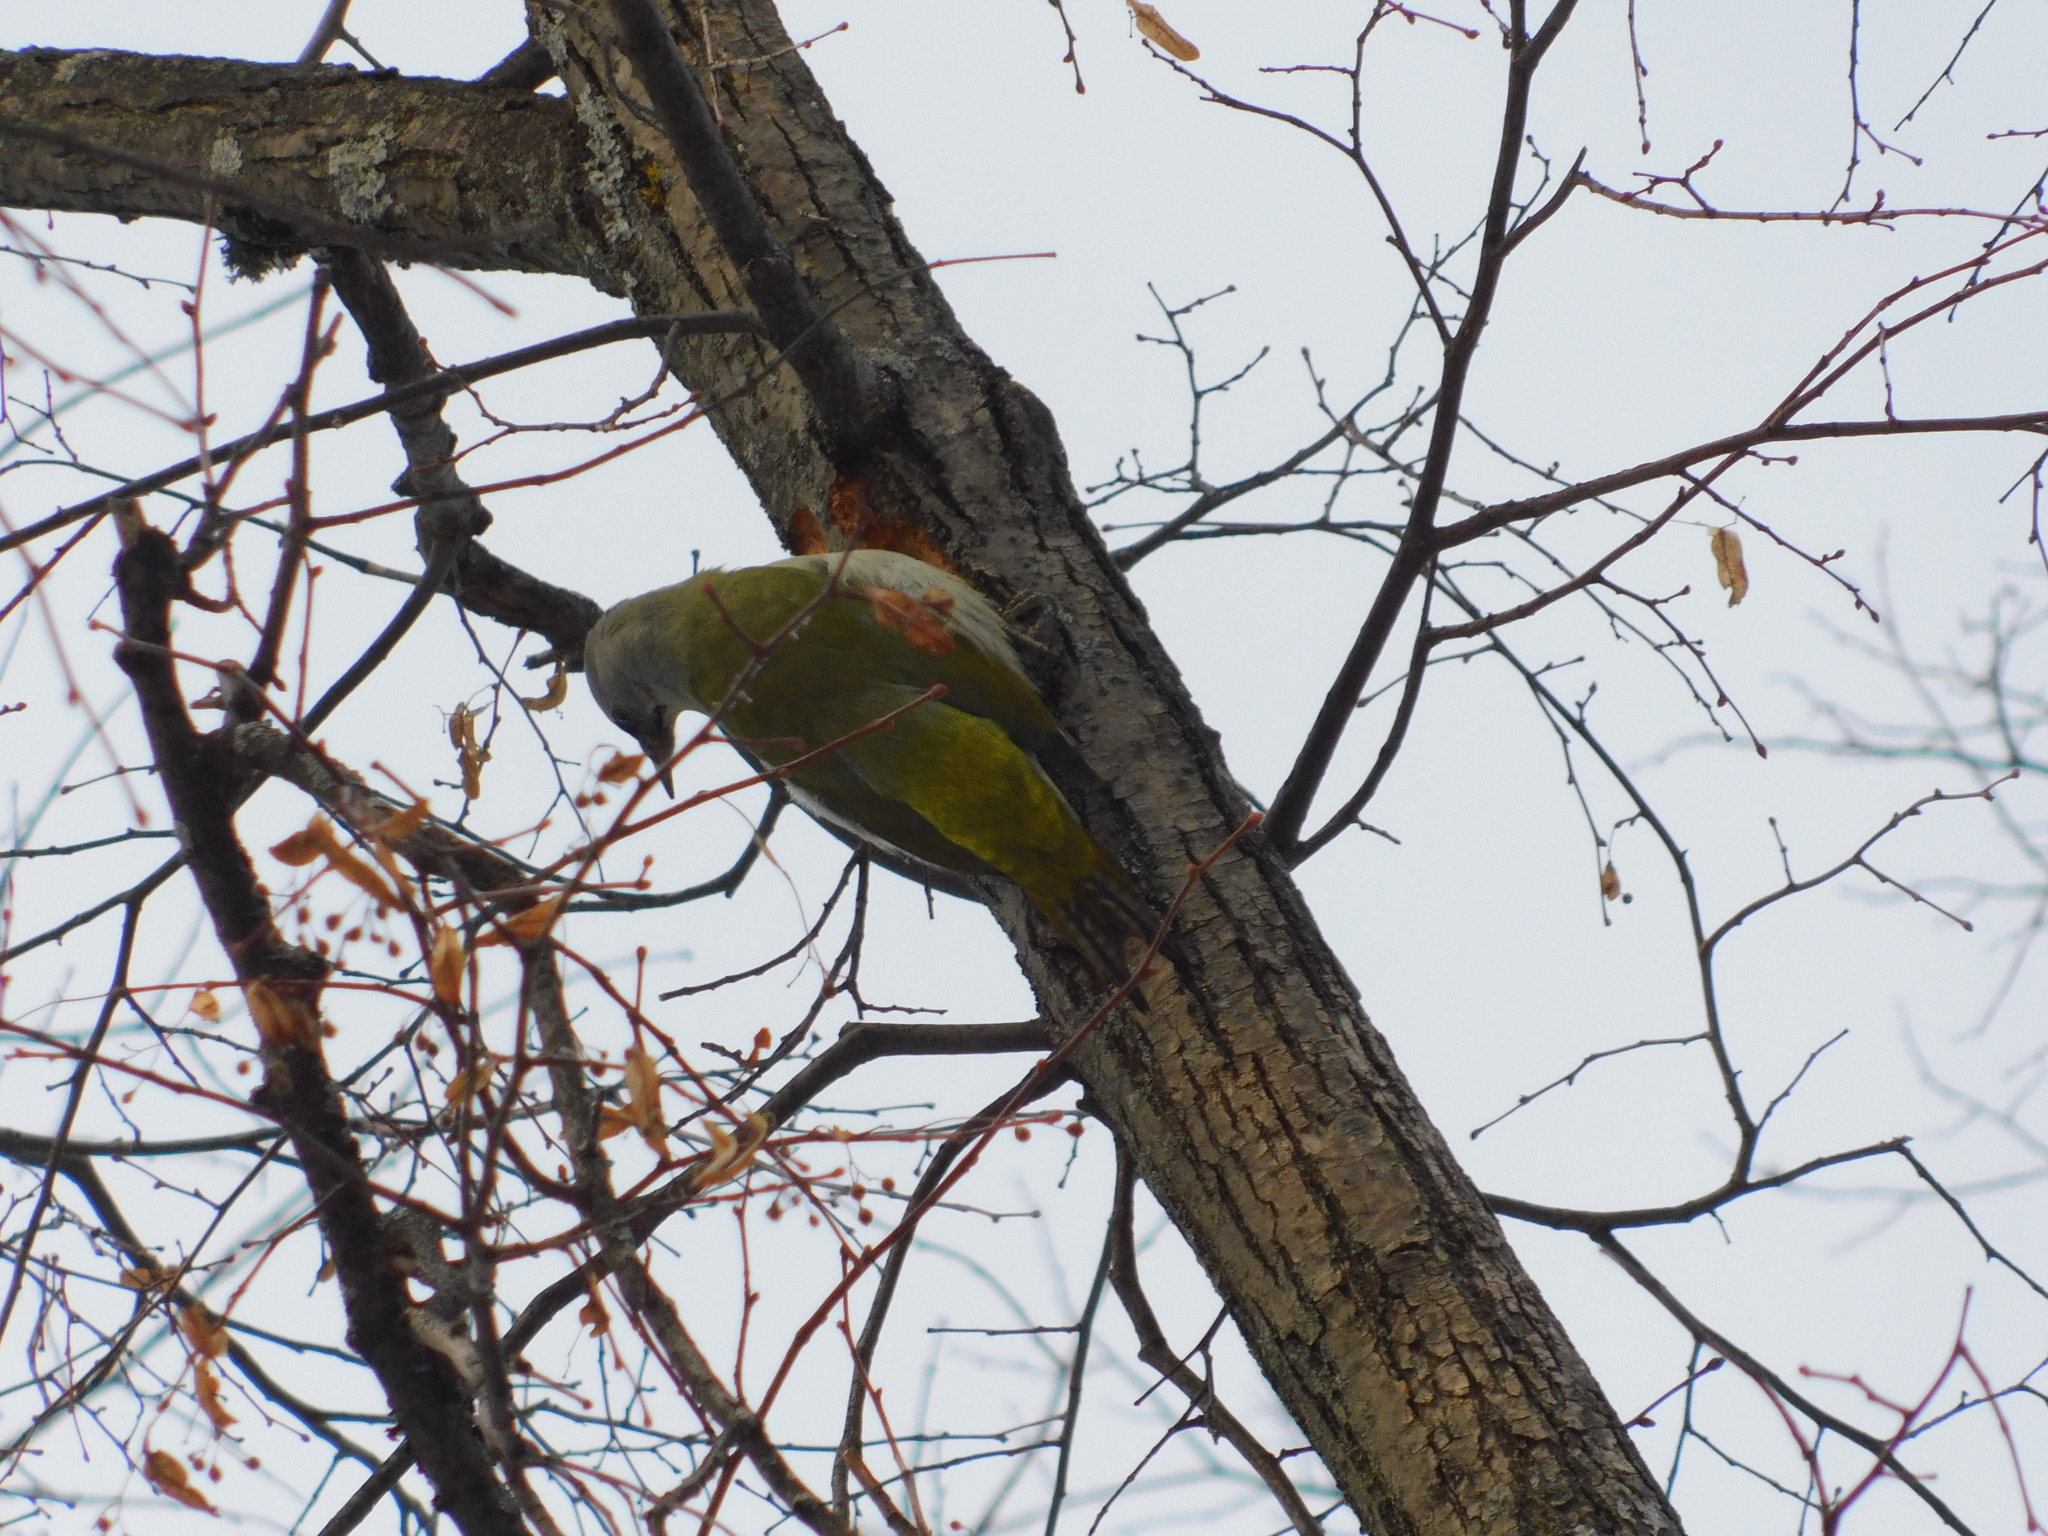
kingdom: Animalia
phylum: Chordata
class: Aves
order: Piciformes
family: Picidae
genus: Picus
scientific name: Picus canus
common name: Grey-headed woodpecker
